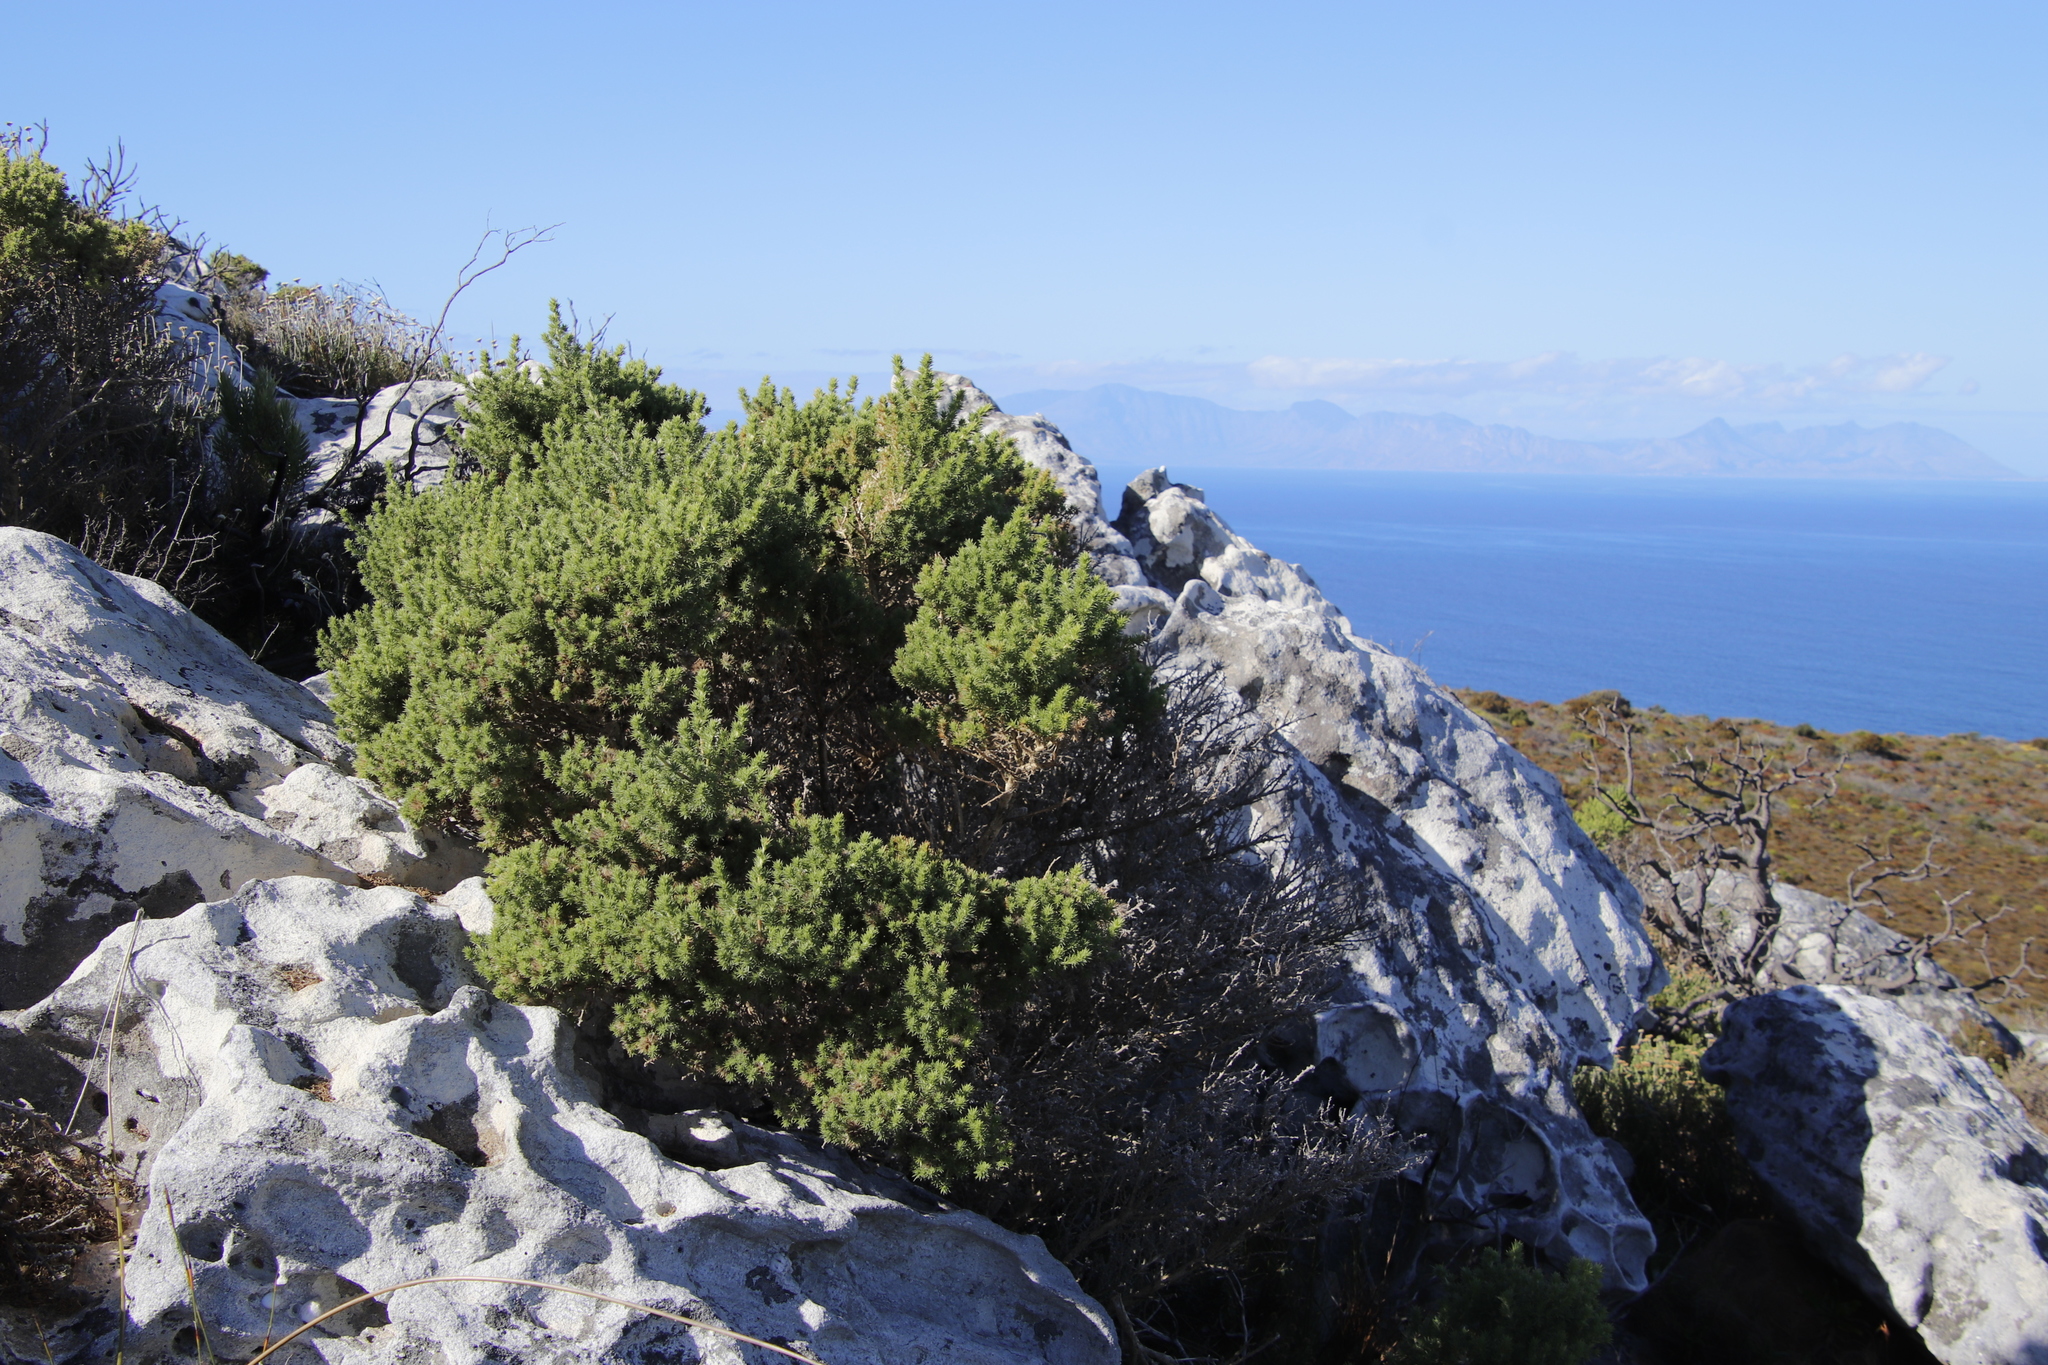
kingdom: Plantae
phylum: Tracheophyta
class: Magnoliopsida
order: Fabales
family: Fabaceae
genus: Aspalathus
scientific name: Aspalathus chenopoda
